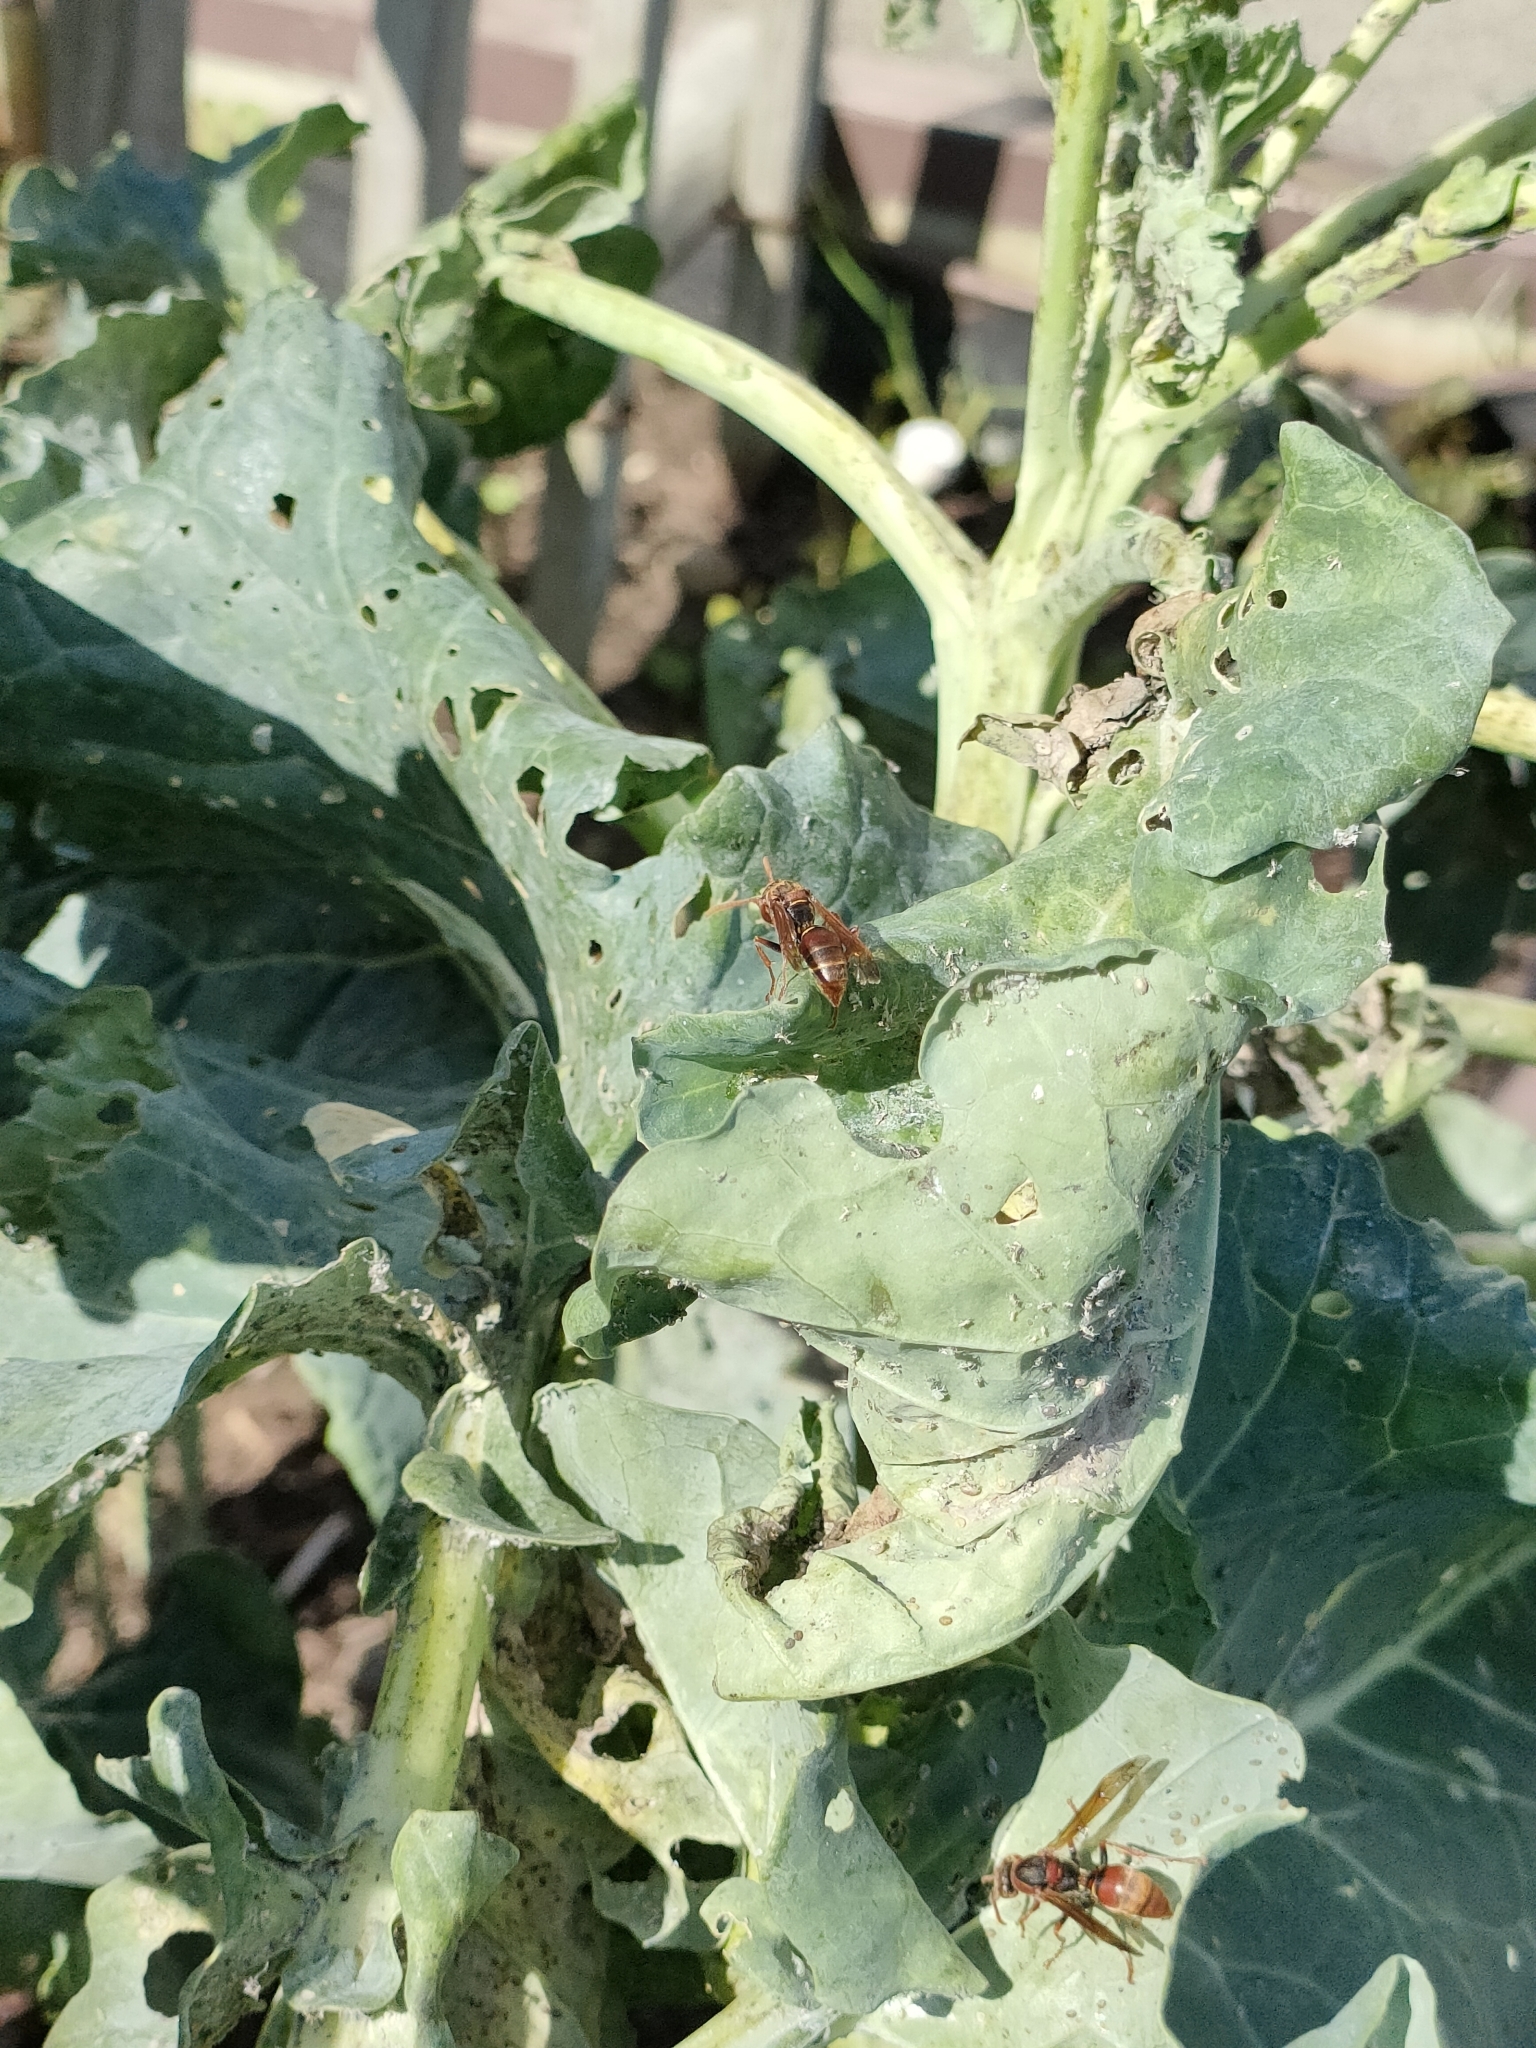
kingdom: Animalia
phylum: Arthropoda
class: Insecta
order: Hymenoptera
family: Eumenidae
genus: Polistes
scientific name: Polistes humilis
